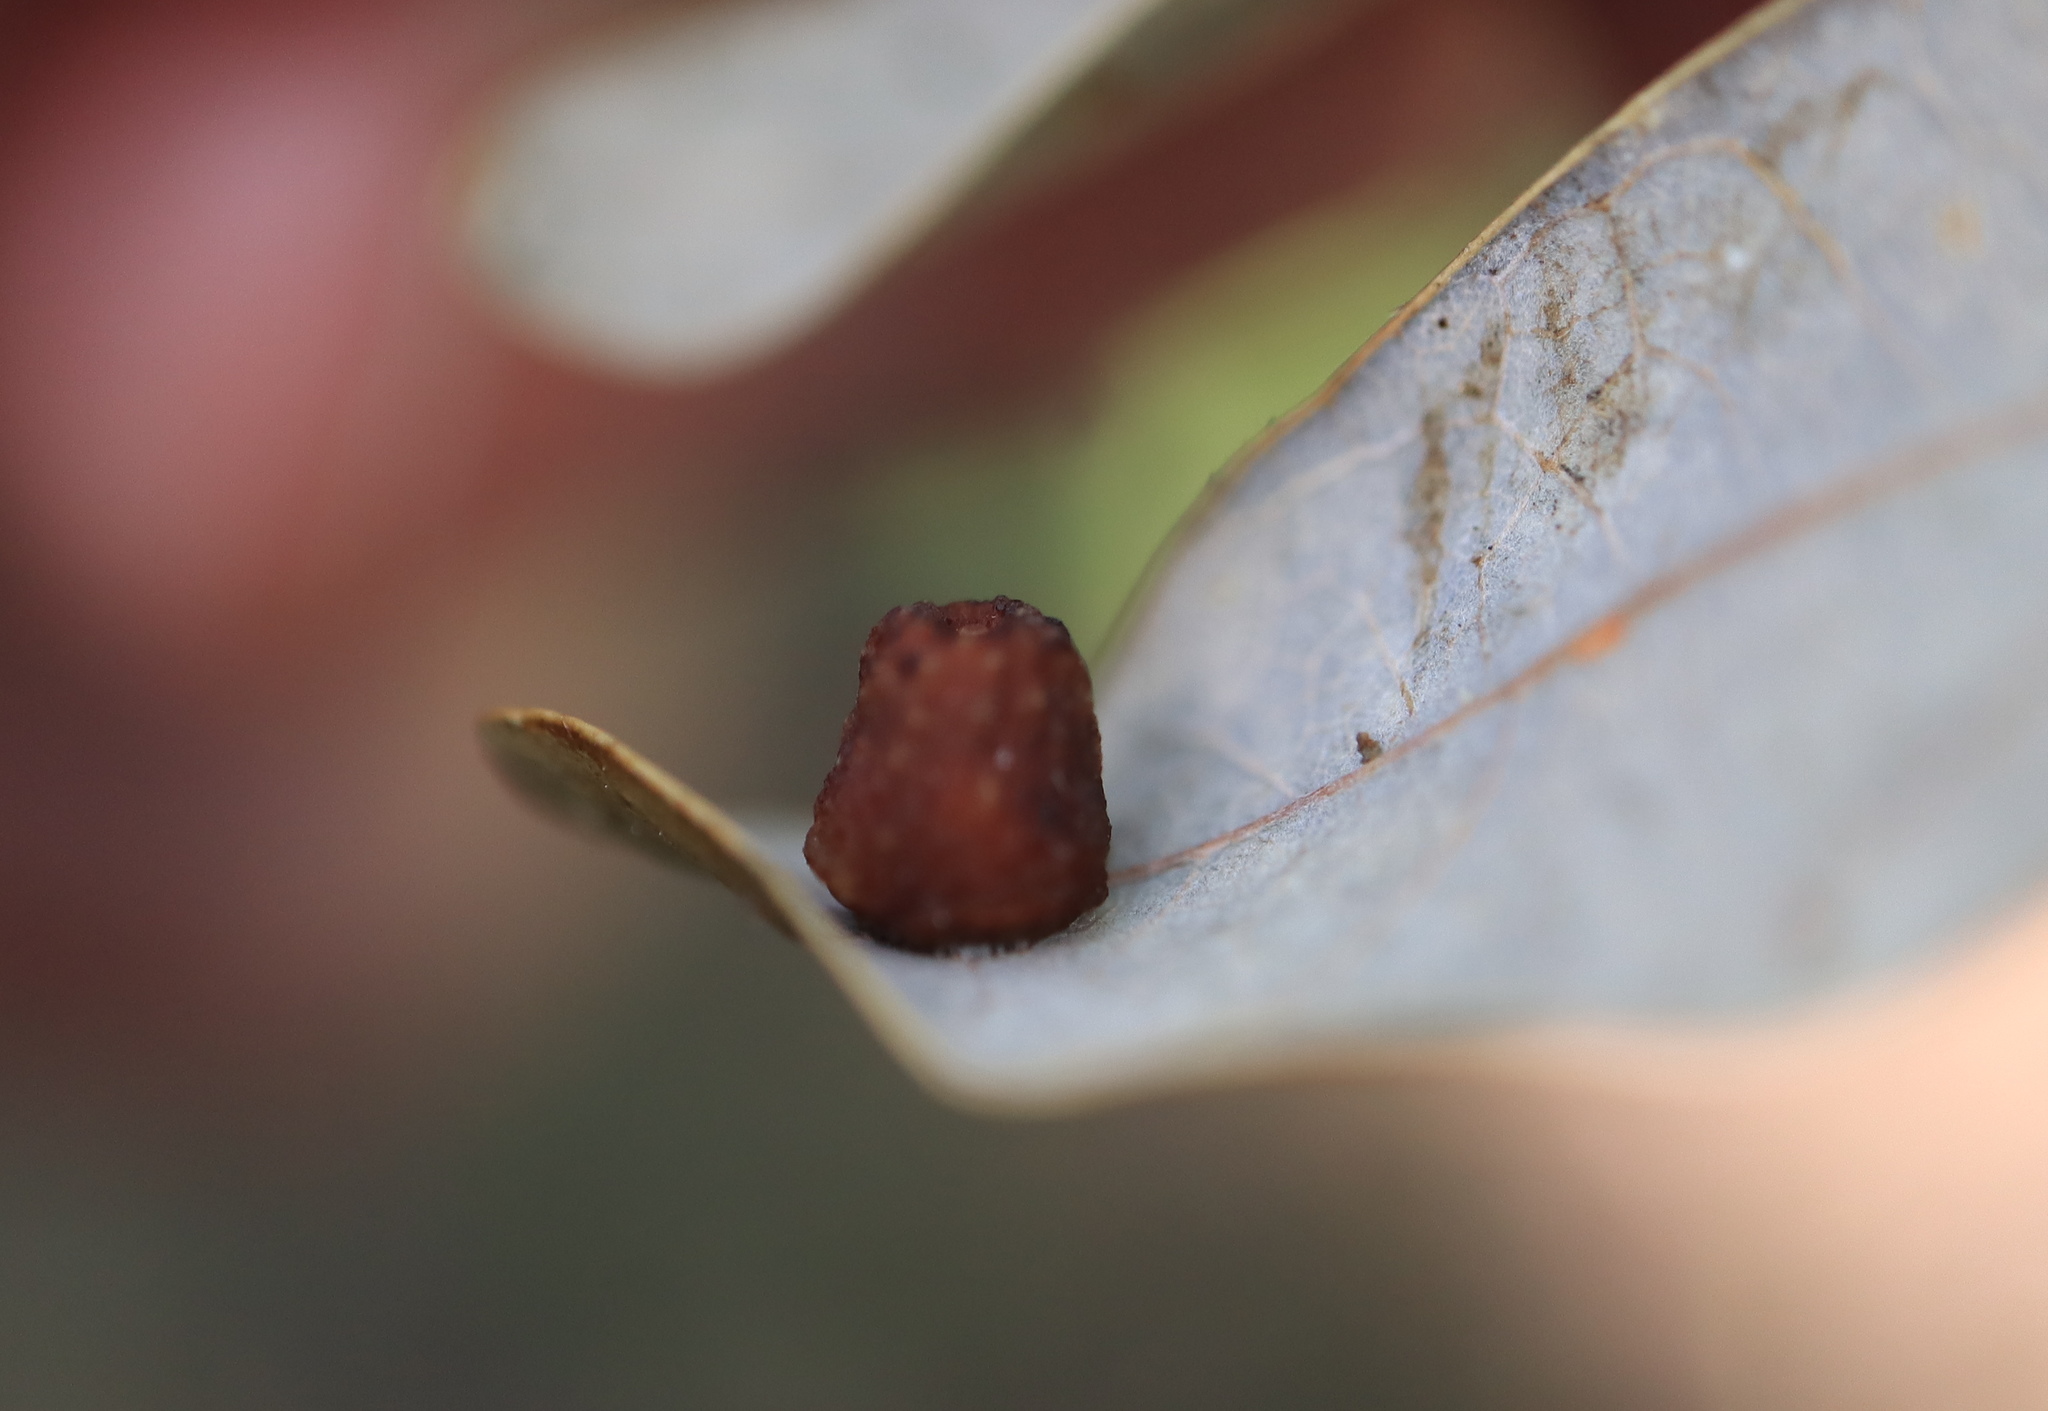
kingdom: Animalia
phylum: Arthropoda
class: Insecta
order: Hymenoptera
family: Cynipidae
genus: Andricus
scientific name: Andricus
